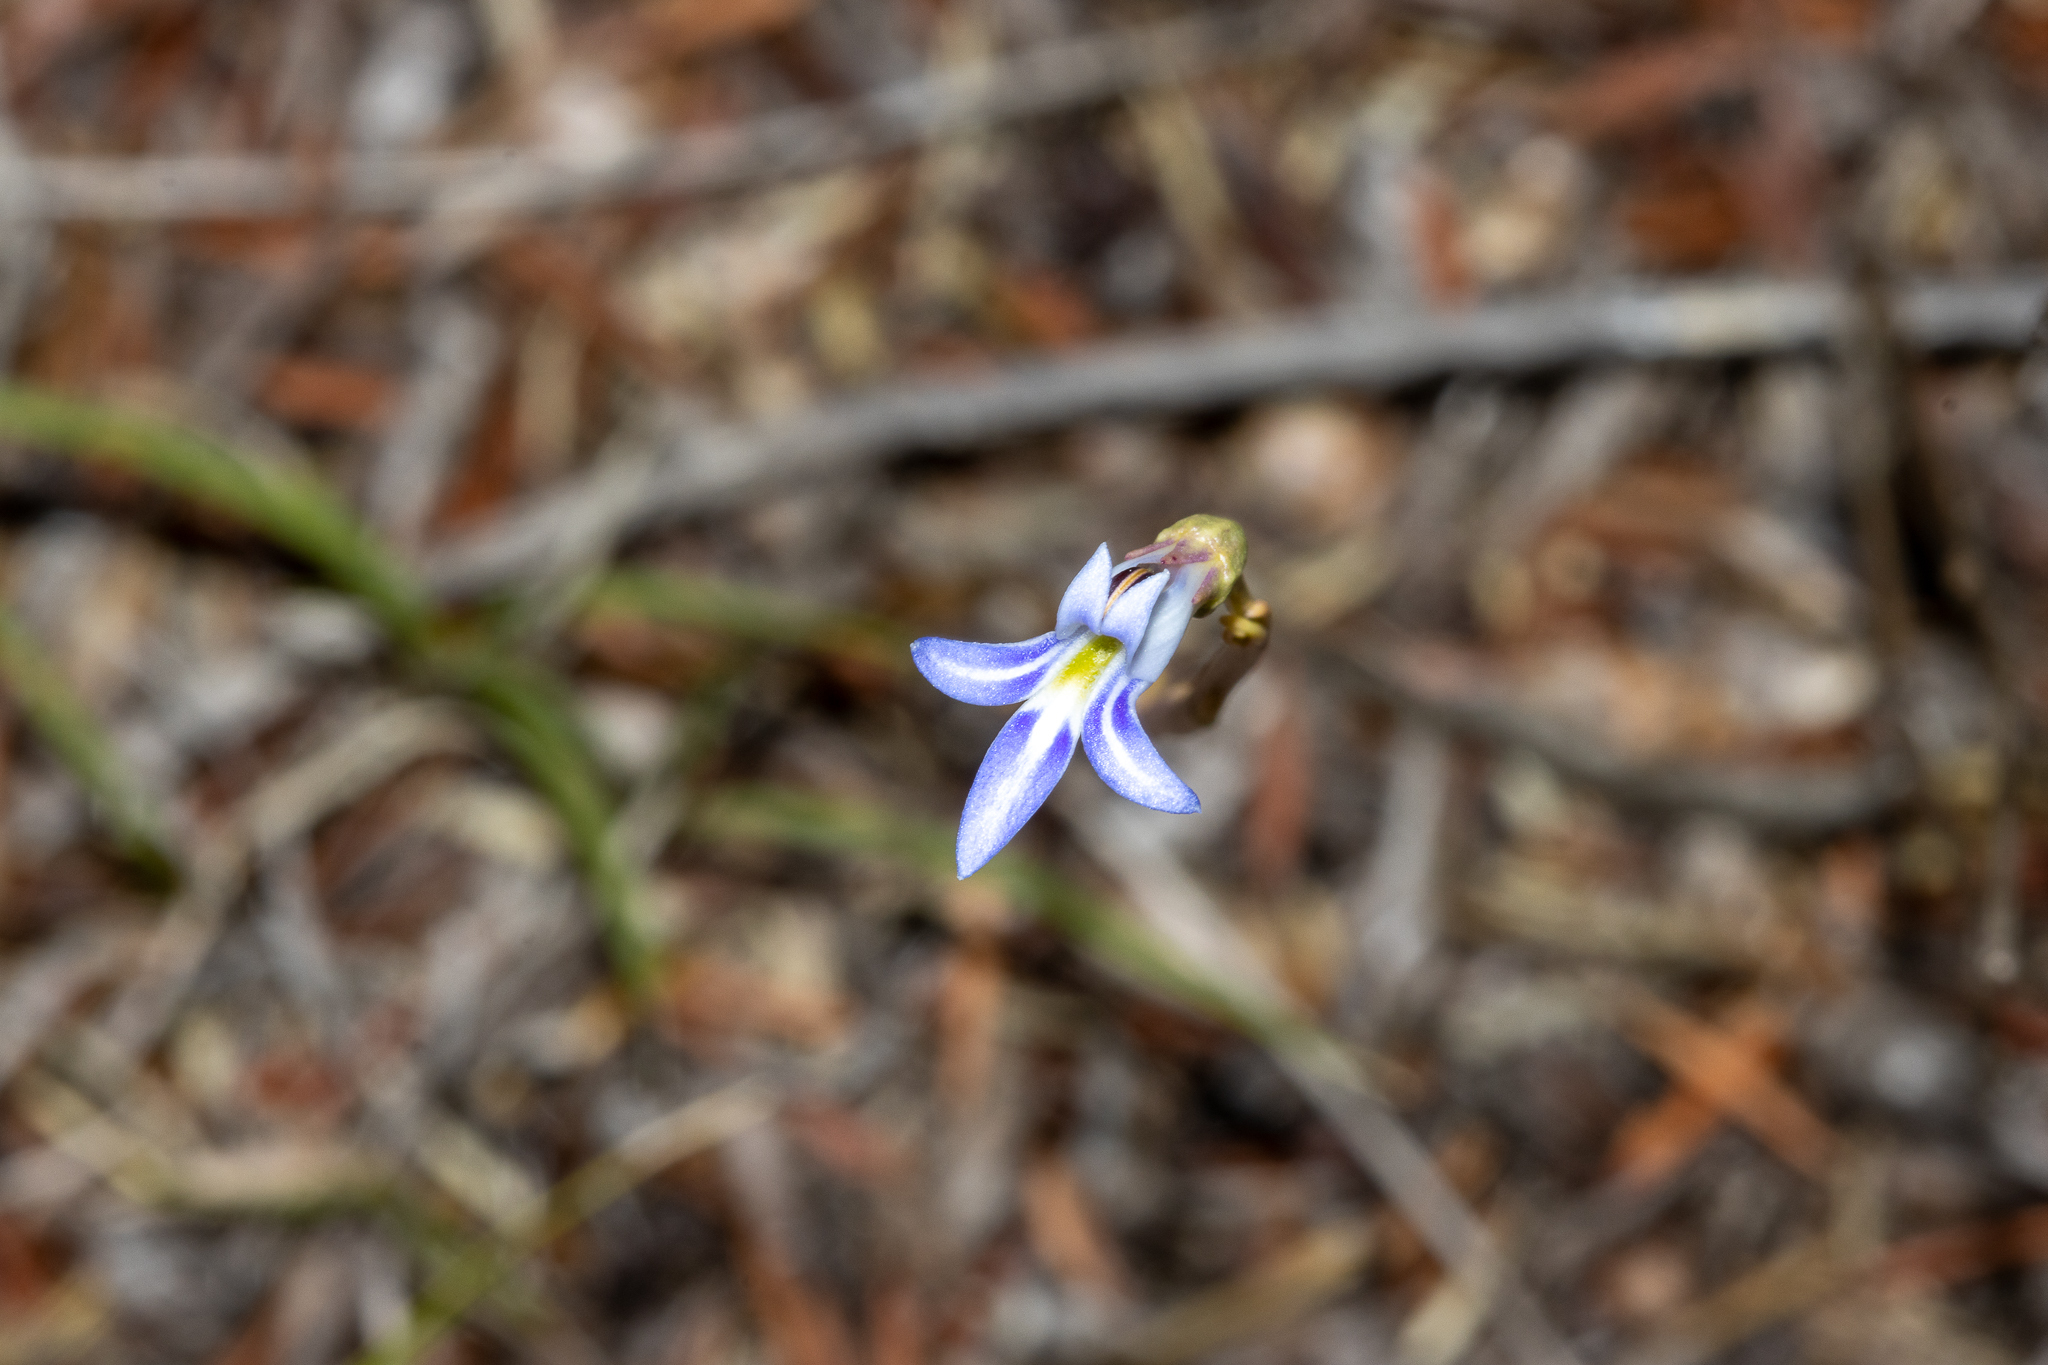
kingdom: Plantae
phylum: Tracheophyta
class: Magnoliopsida
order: Asterales
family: Campanulaceae
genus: Lobelia
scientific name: Lobelia gibbosa
